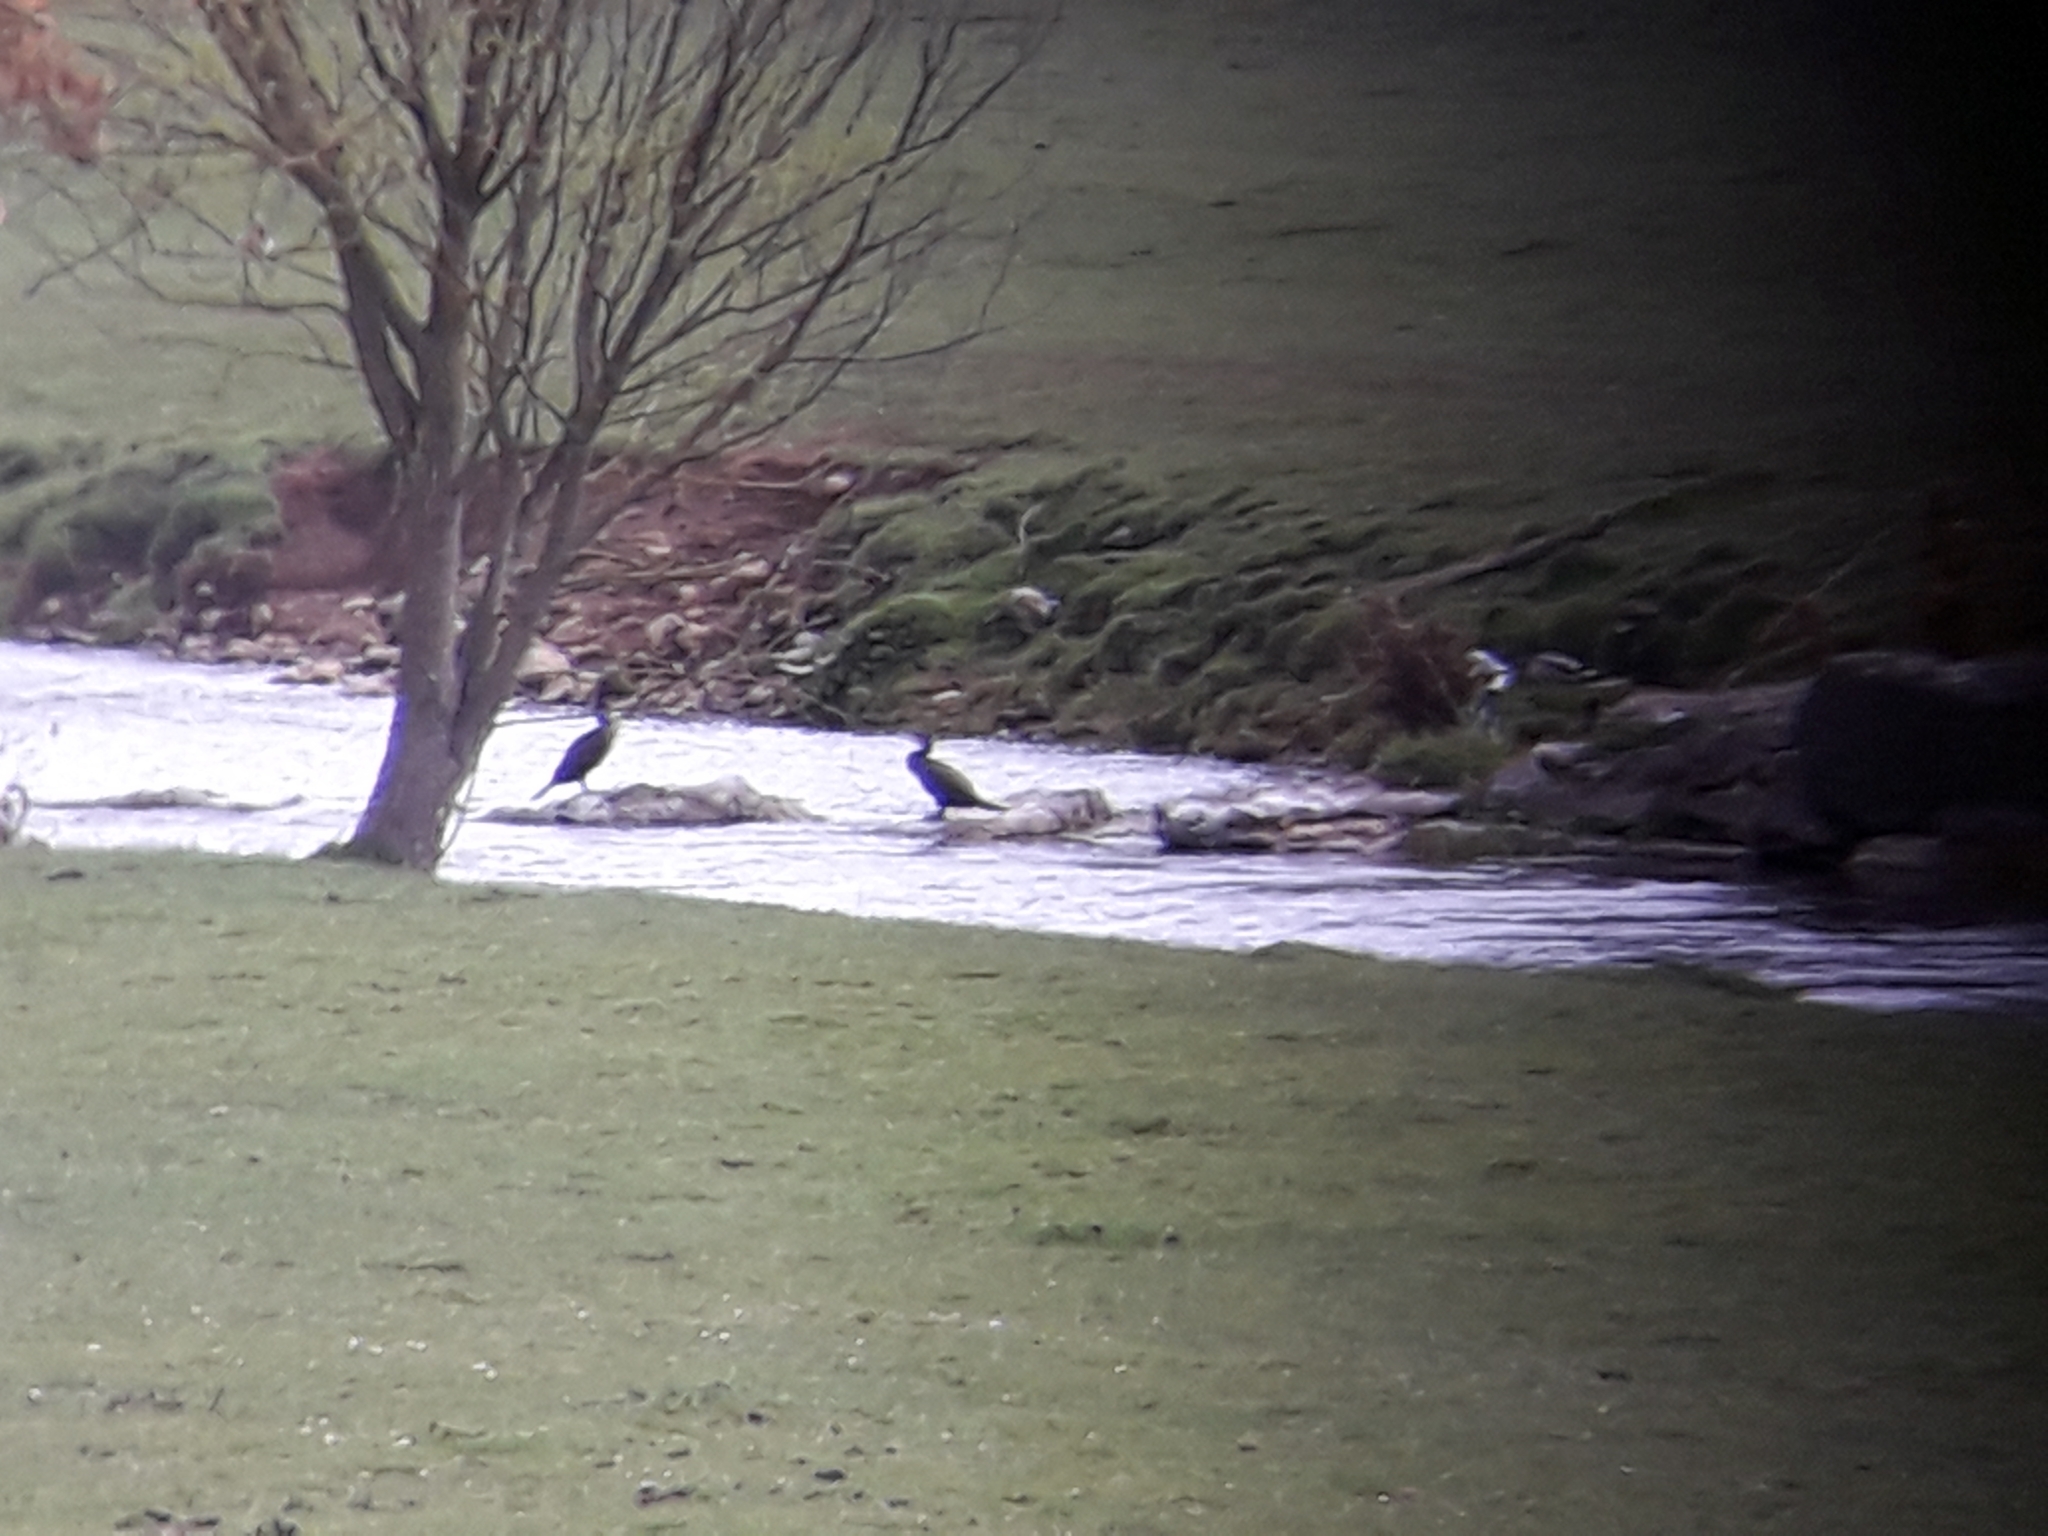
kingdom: Animalia
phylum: Chordata
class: Aves
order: Suliformes
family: Phalacrocoracidae
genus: Phalacrocorax
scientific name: Phalacrocorax carbo
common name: Great cormorant
